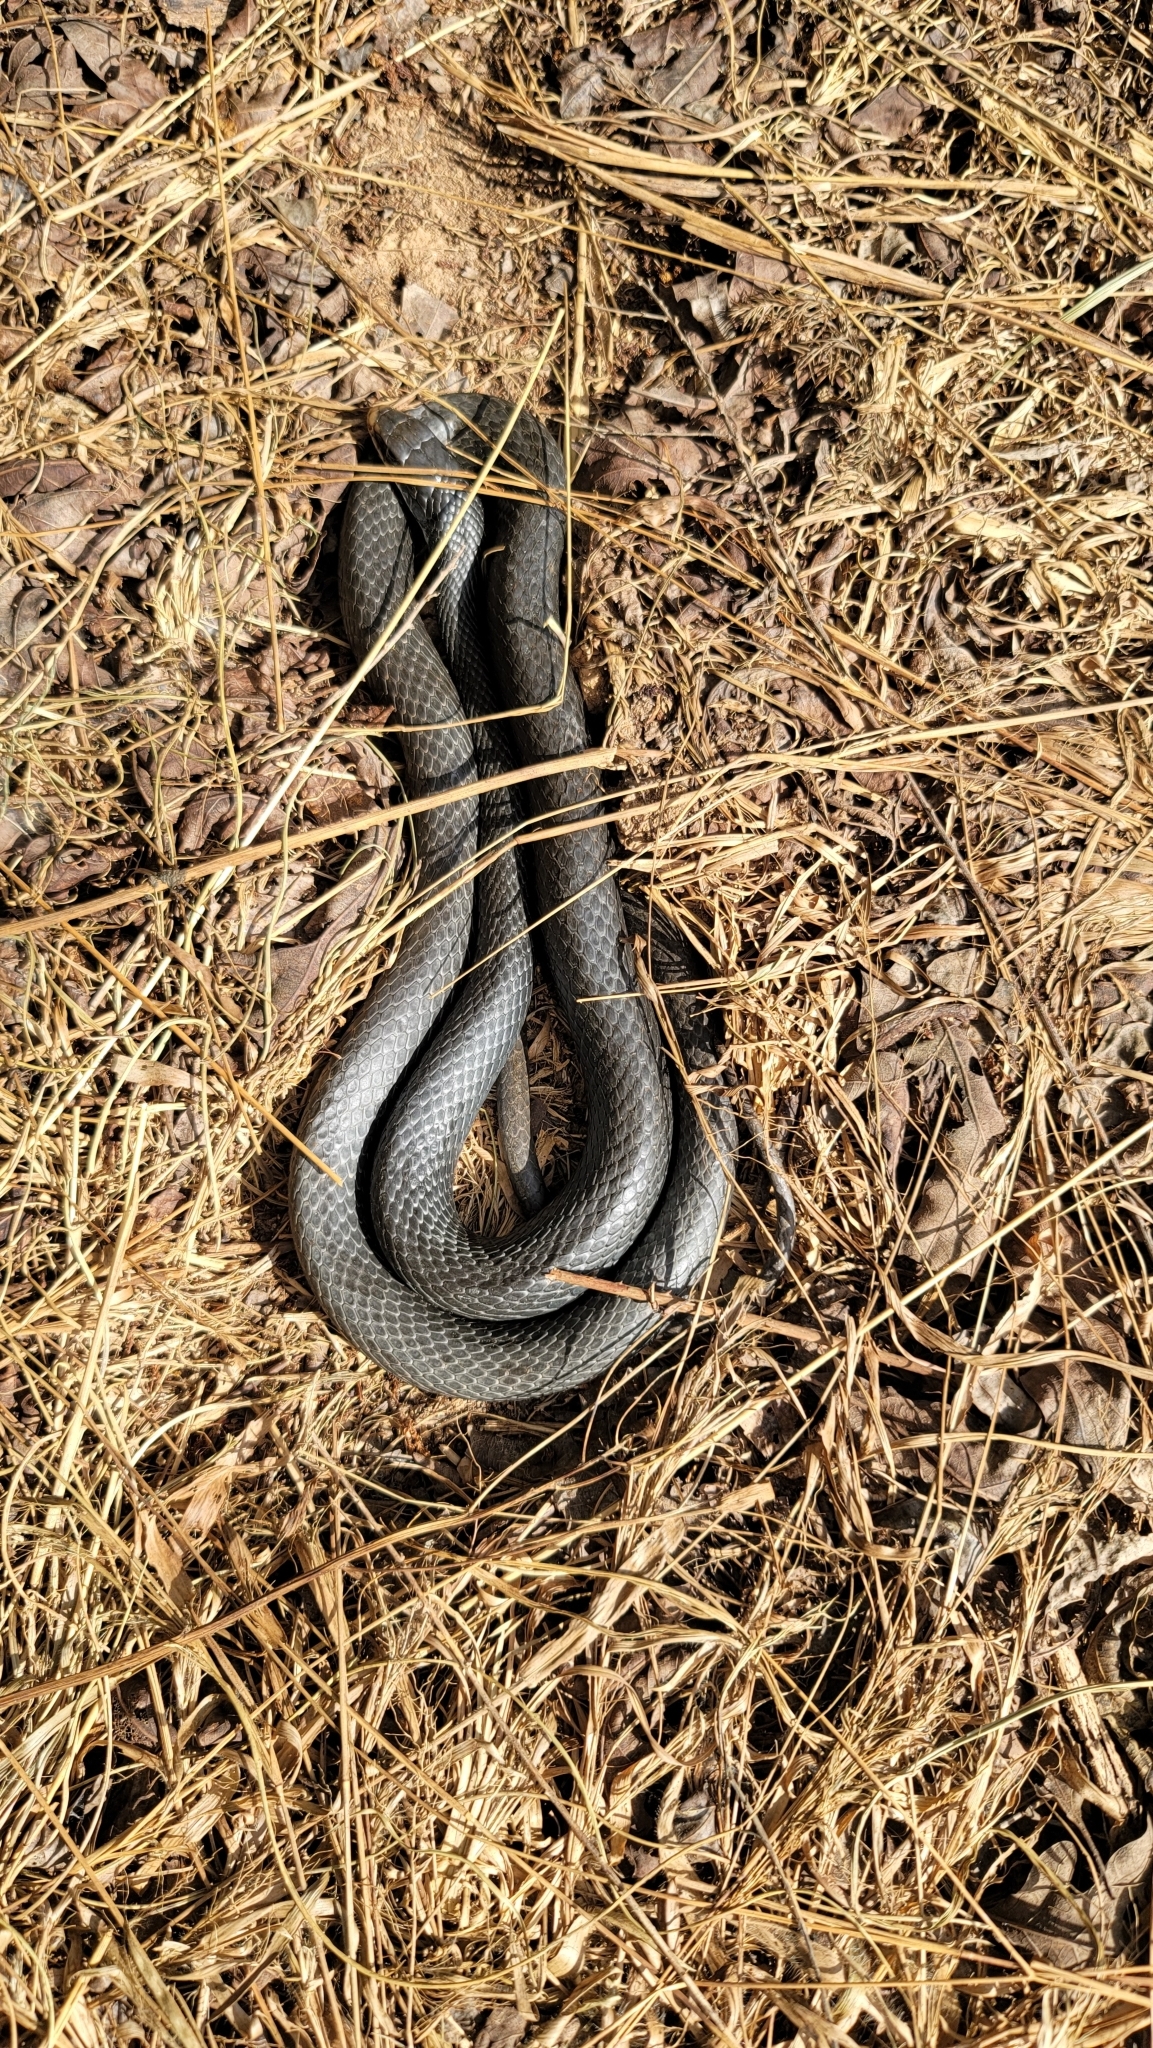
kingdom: Animalia
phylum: Chordata
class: Squamata
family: Colubridae
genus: Coluber
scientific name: Coluber constrictor
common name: Eastern racer
